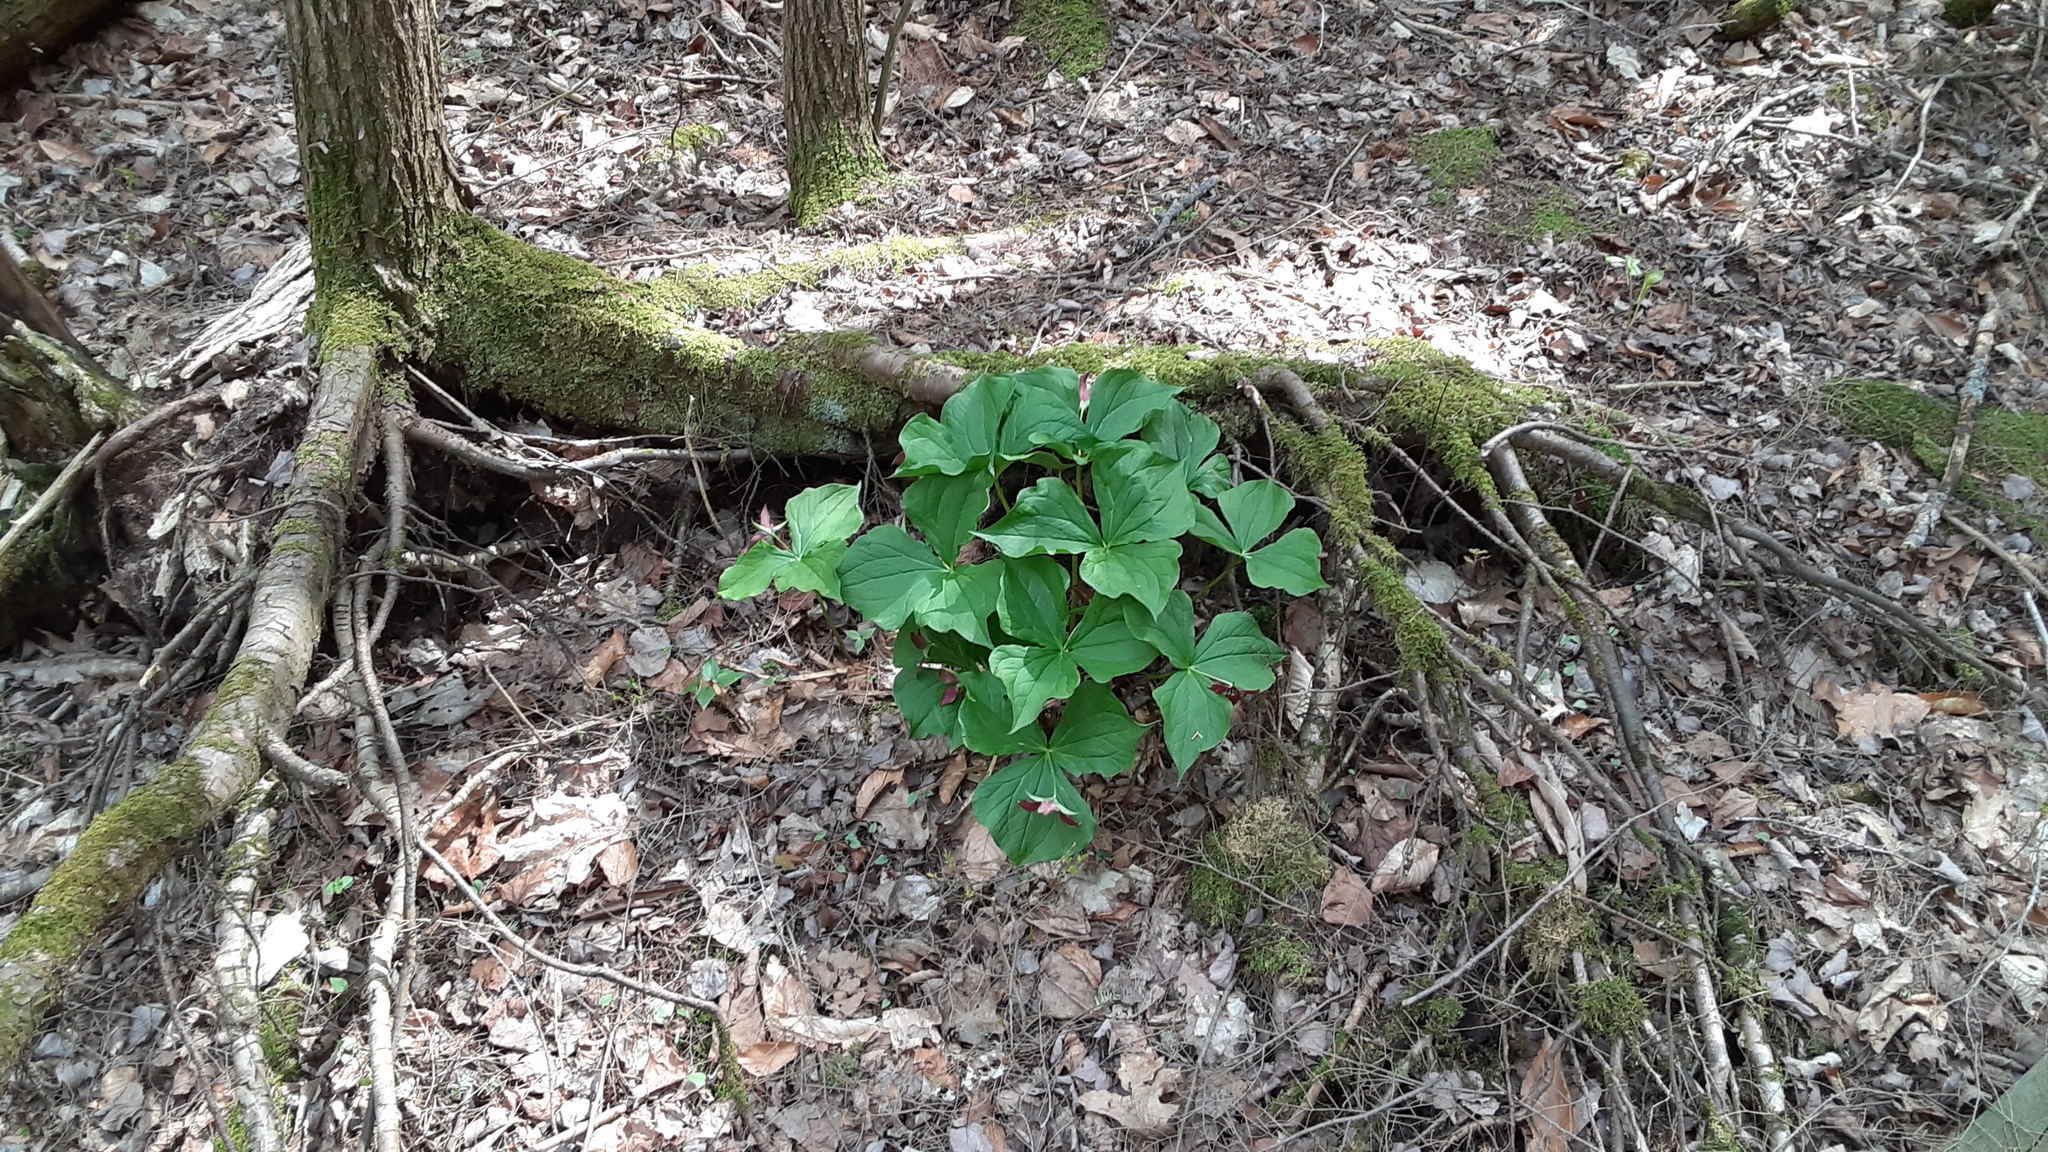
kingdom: Plantae
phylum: Tracheophyta
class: Liliopsida
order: Liliales
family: Melanthiaceae
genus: Trillium
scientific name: Trillium erectum
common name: Purple trillium
